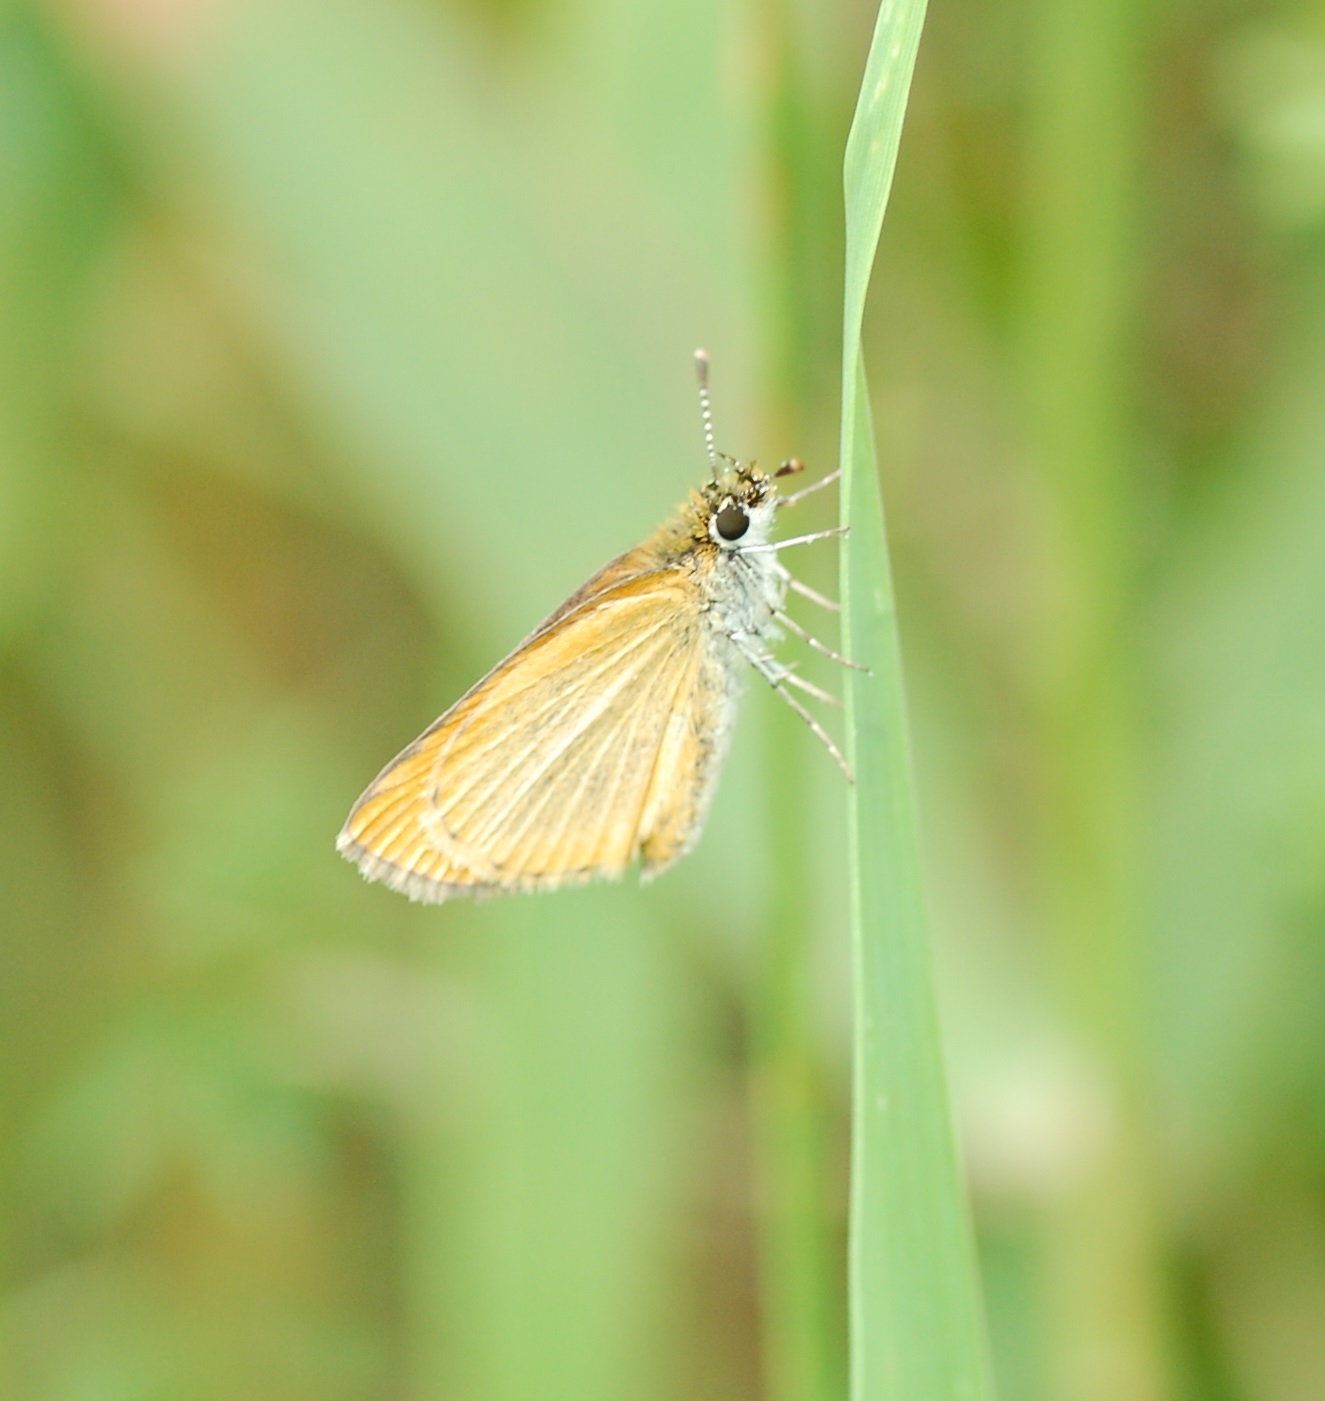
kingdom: Animalia
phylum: Arthropoda
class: Insecta
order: Lepidoptera
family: Hesperiidae
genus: Ancyloxypha
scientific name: Ancyloxypha numitor
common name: Least skipper
